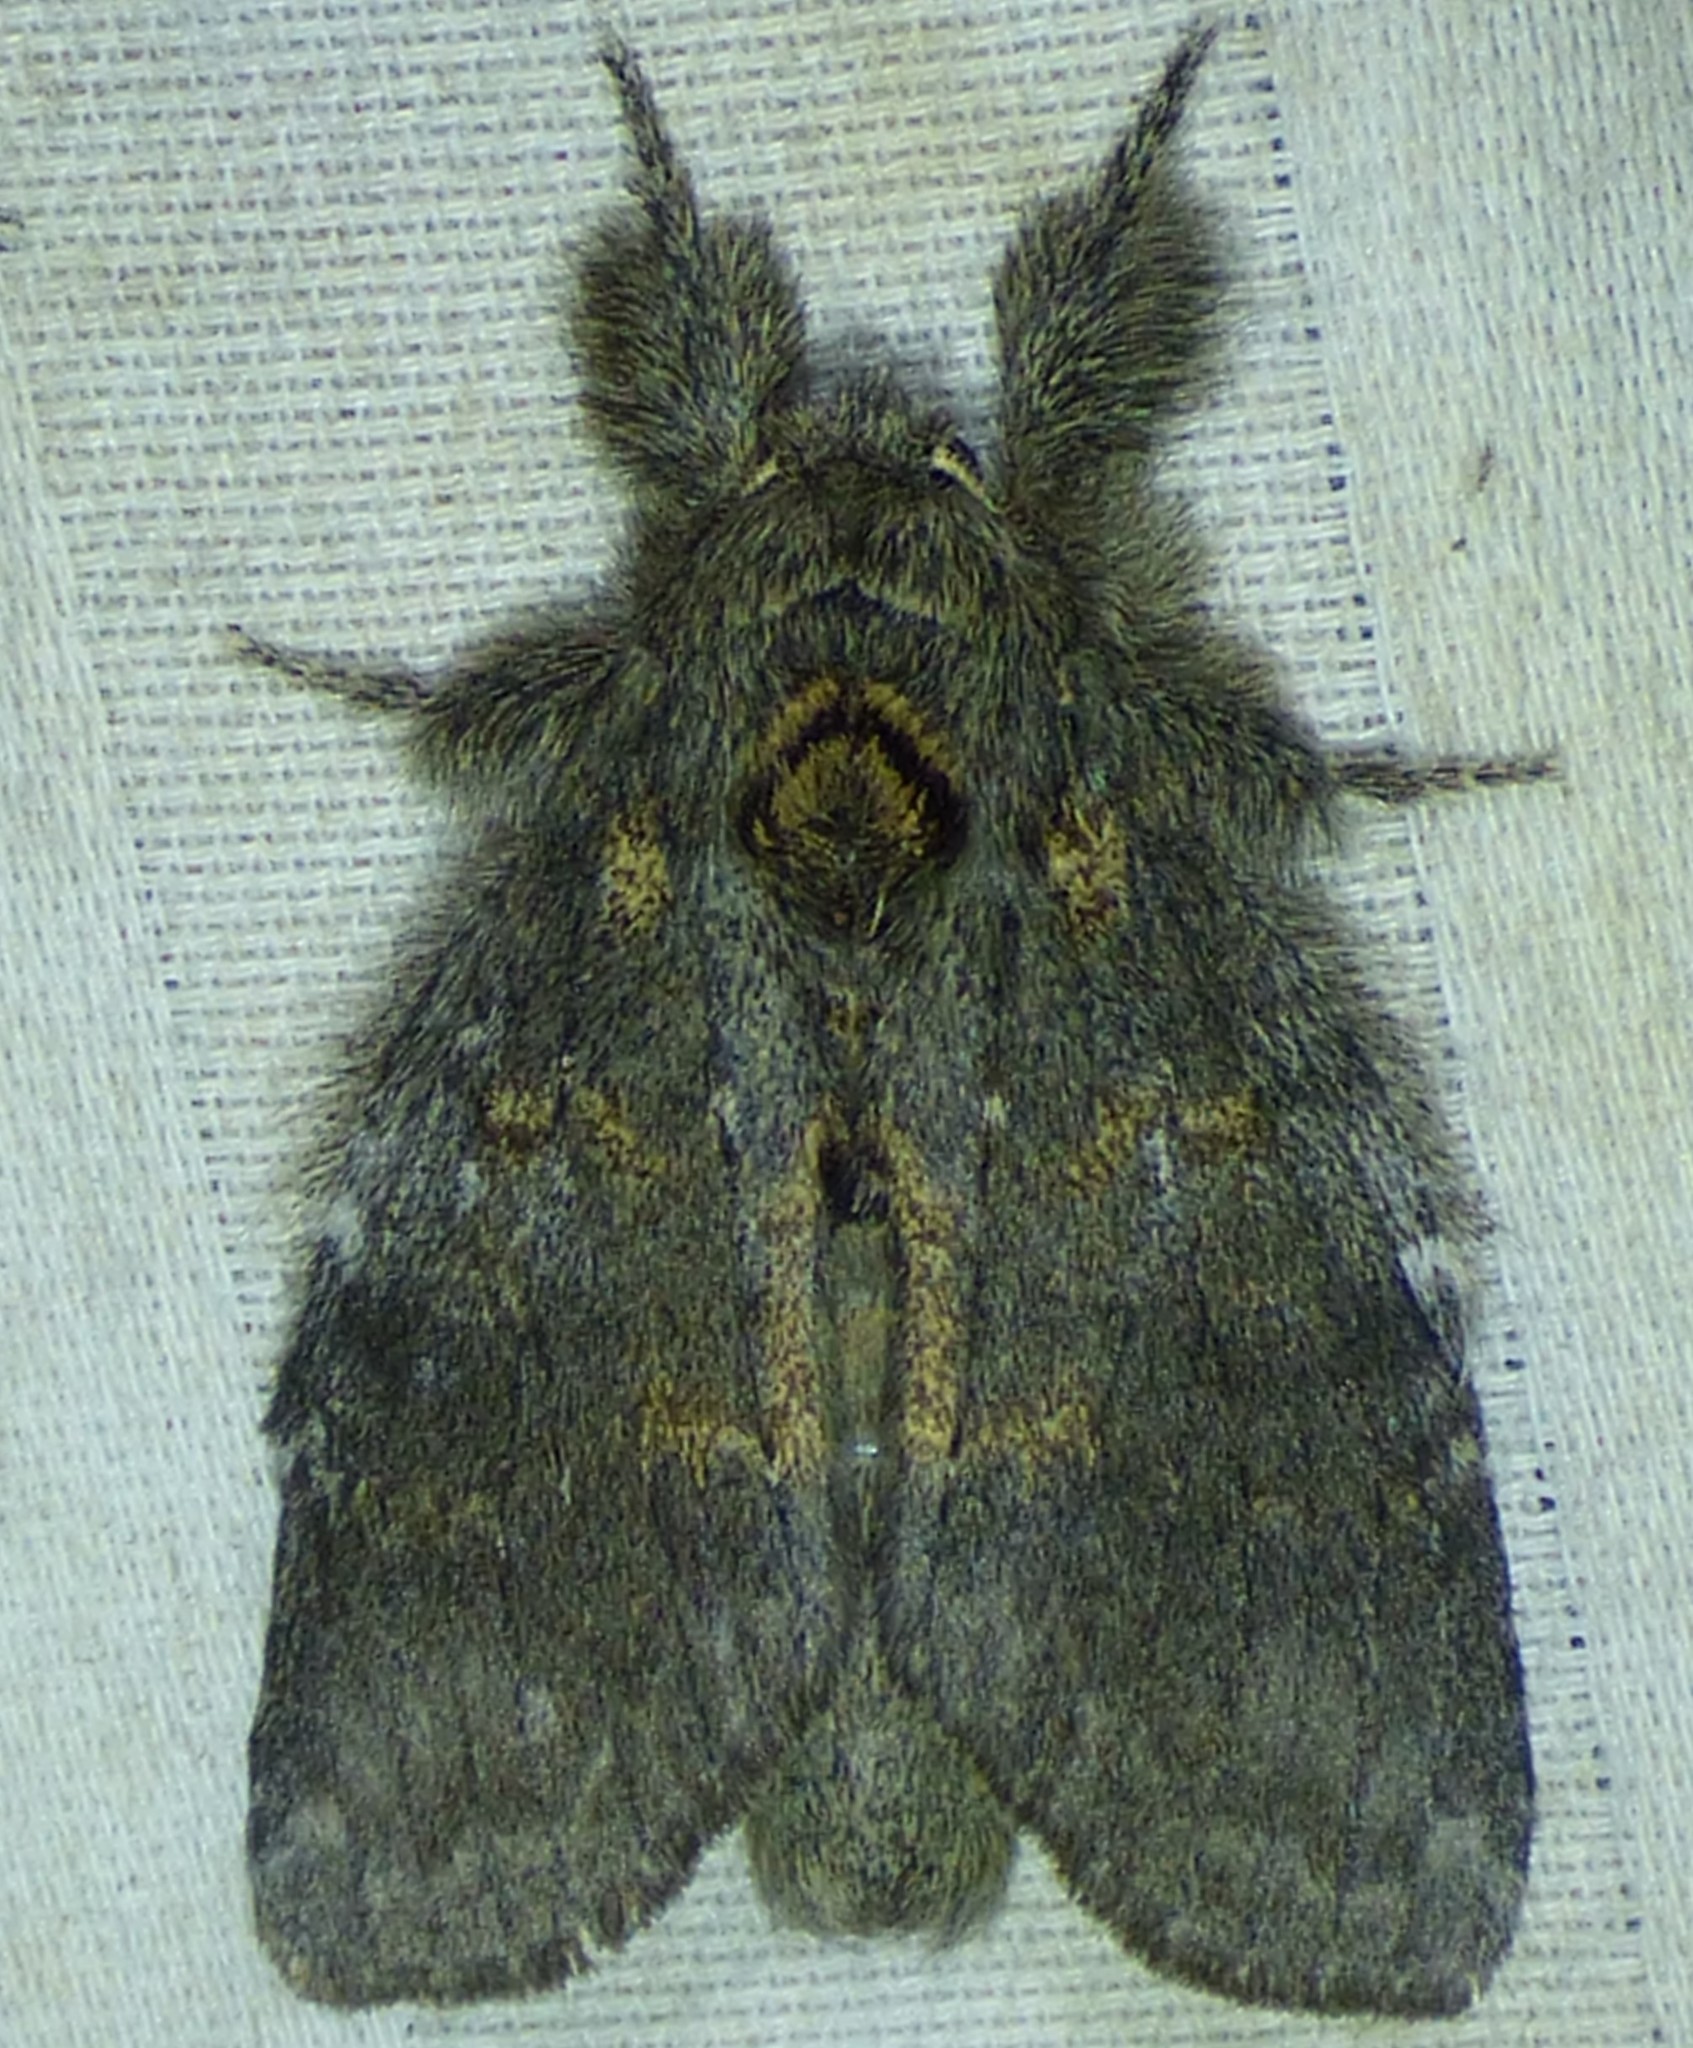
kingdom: Animalia
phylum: Arthropoda
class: Insecta
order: Lepidoptera
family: Notodontidae
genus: Peridea
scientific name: Peridea angulosa
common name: Angulose prominent
